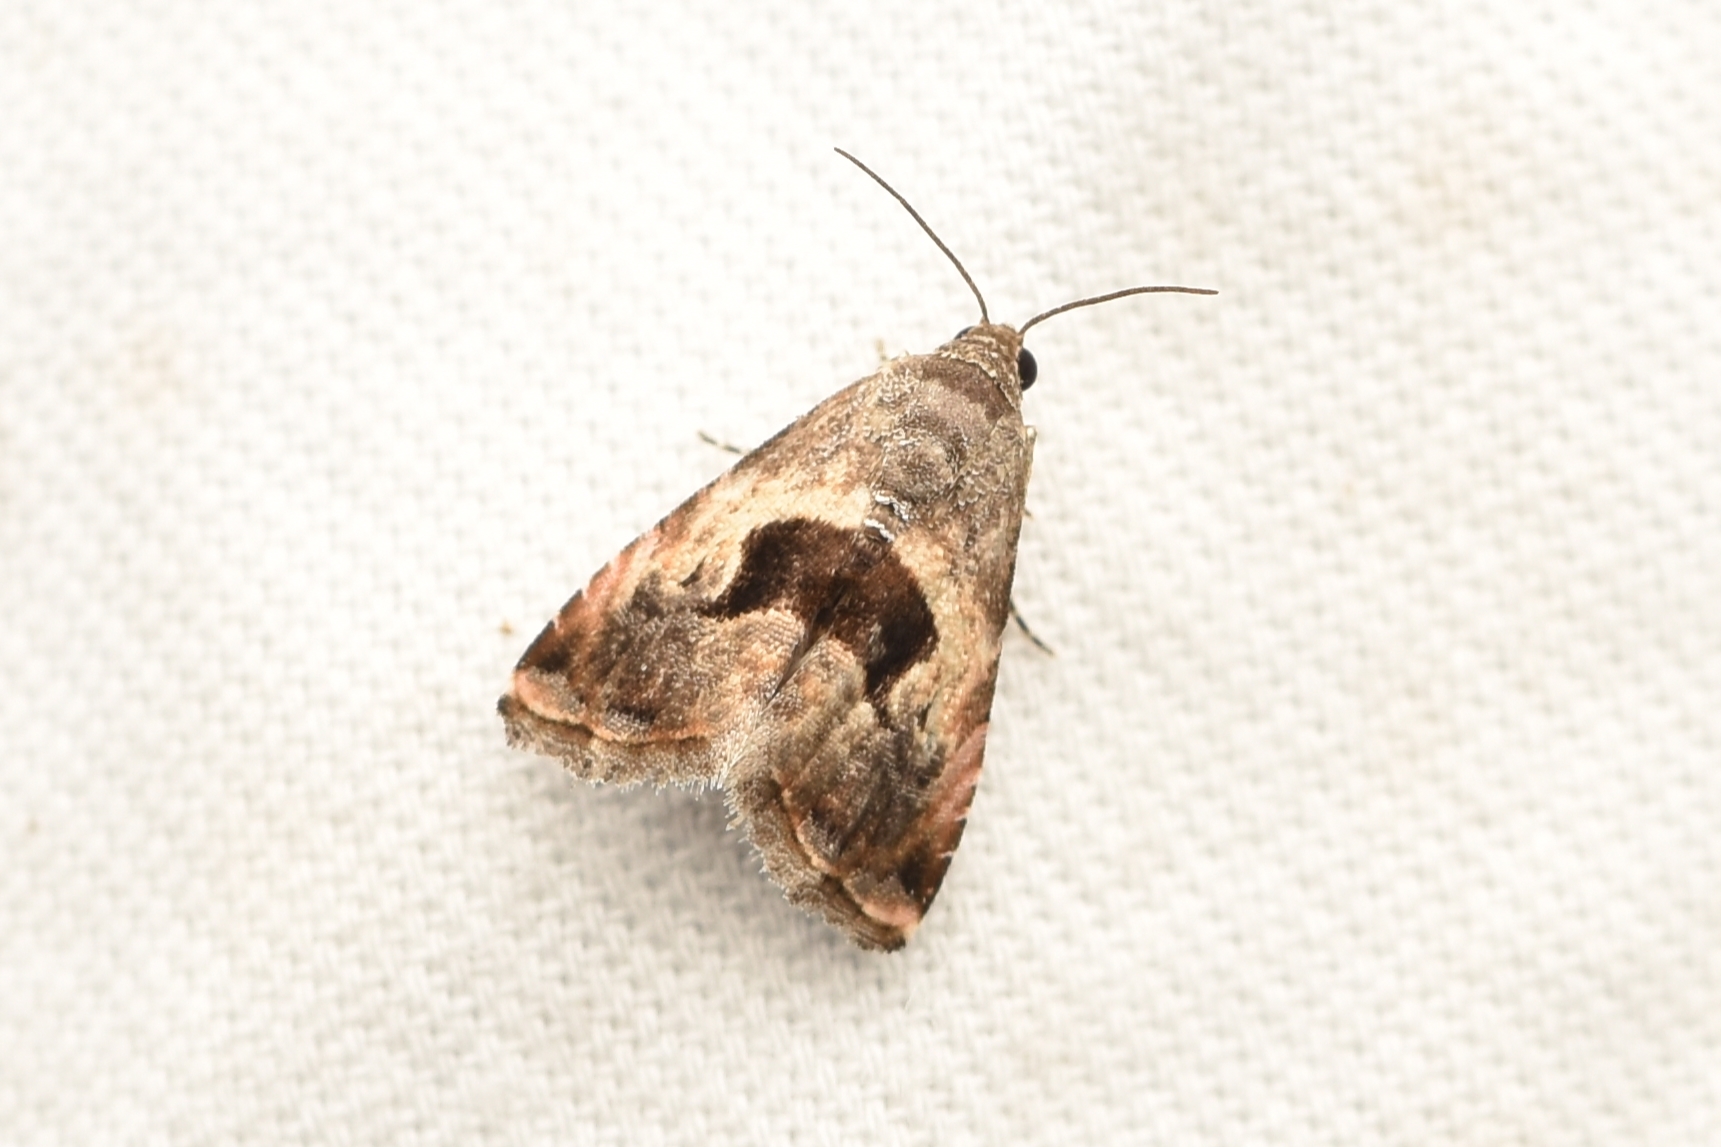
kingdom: Animalia
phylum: Arthropoda
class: Insecta
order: Lepidoptera
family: Noctuidae
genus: Tripudia
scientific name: Tripudia quadrifera
